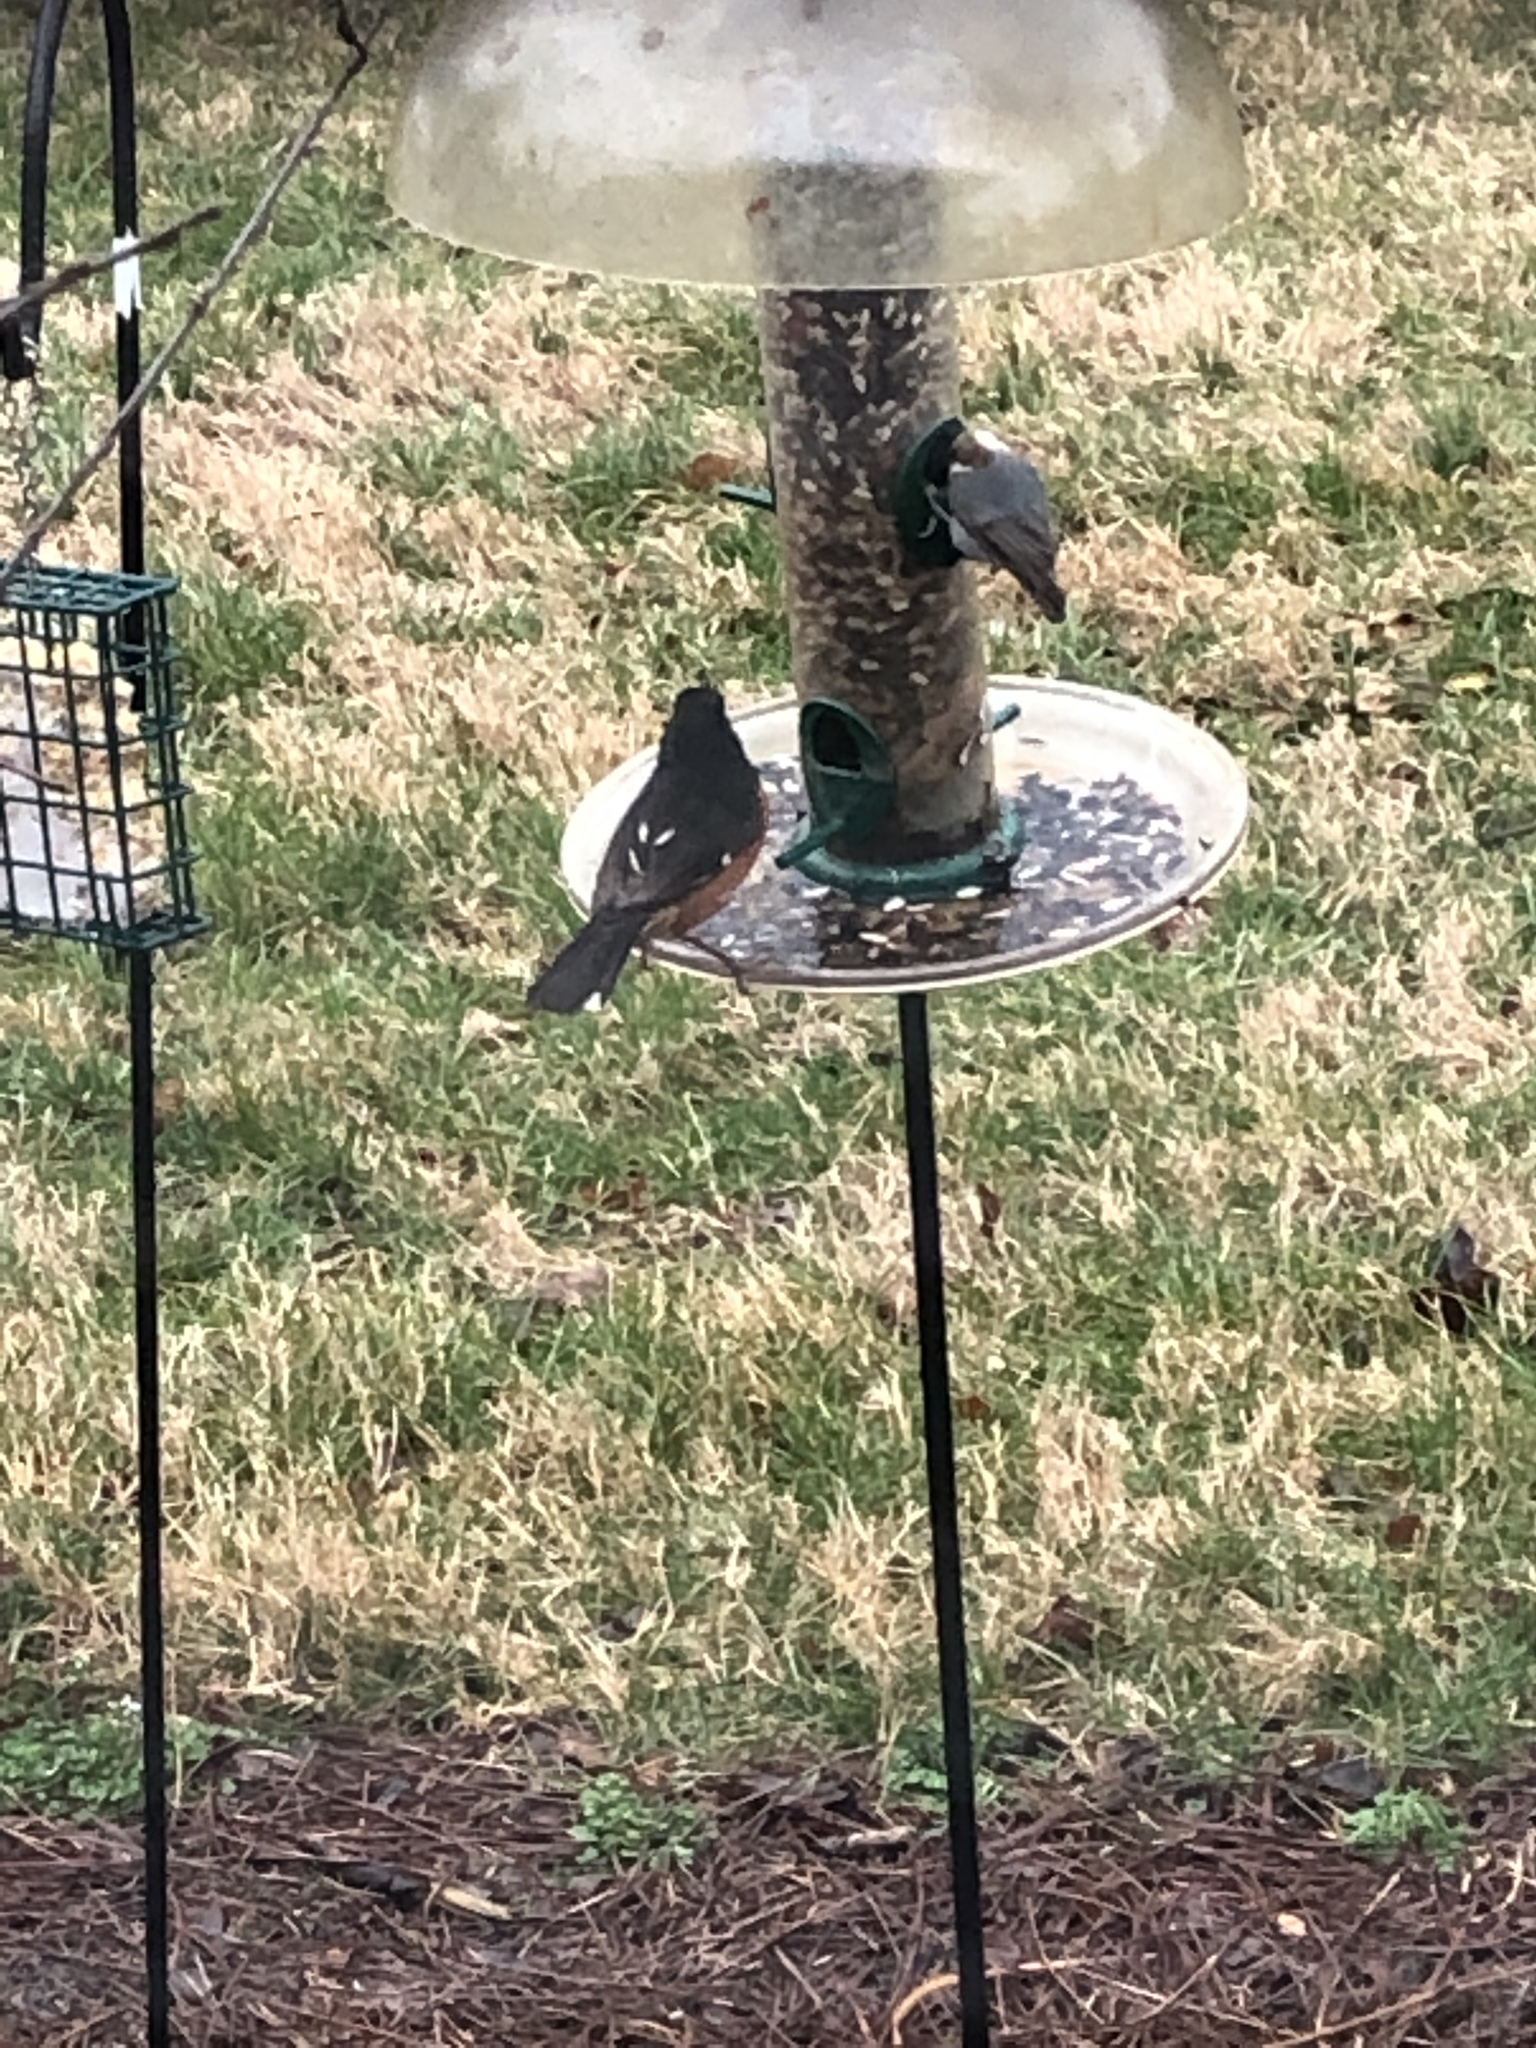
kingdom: Animalia
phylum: Chordata
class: Aves
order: Passeriformes
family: Sittidae
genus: Sitta
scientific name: Sitta pusilla
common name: Brown-headed nuthatch
